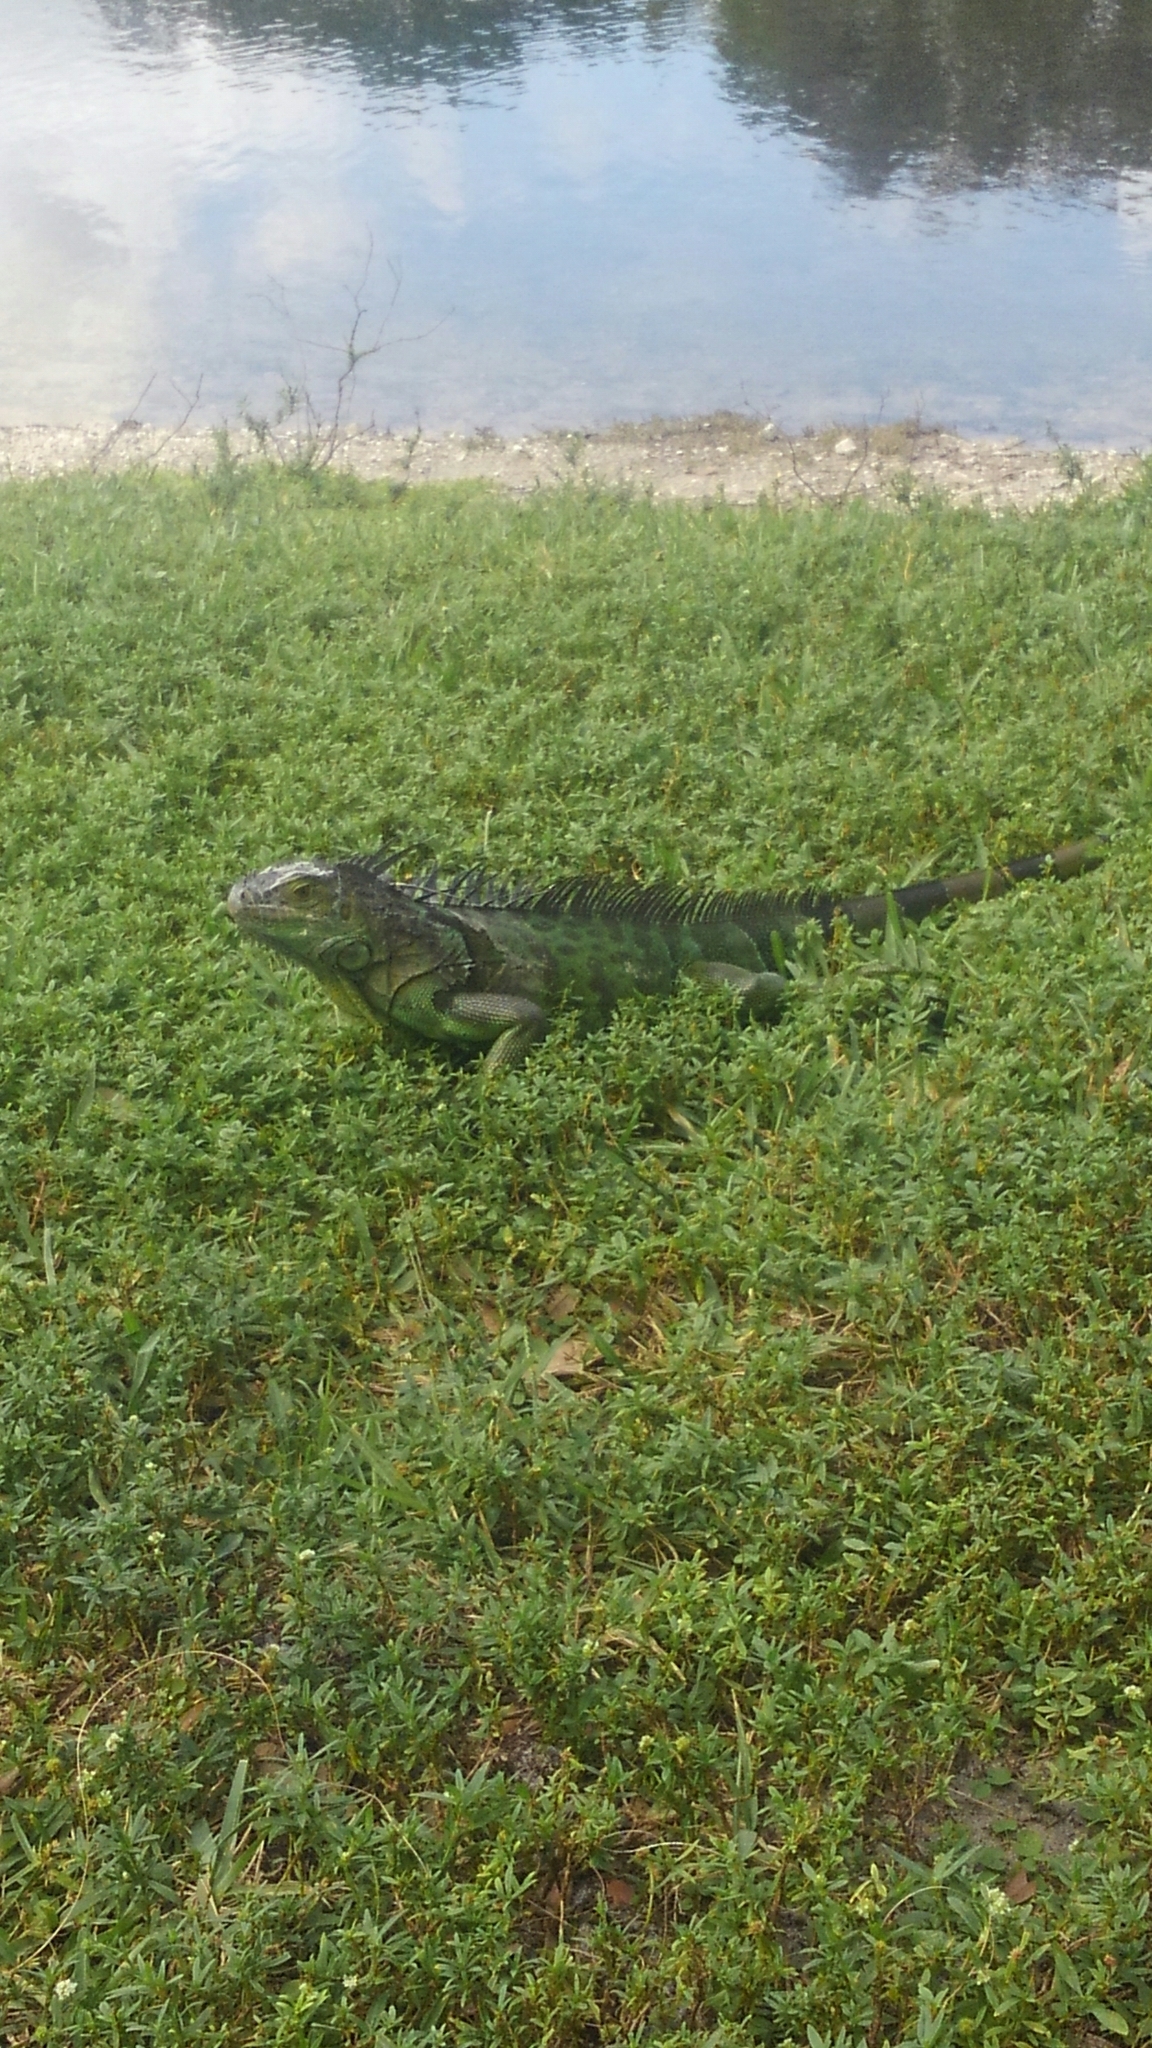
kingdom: Animalia
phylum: Chordata
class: Squamata
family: Iguanidae
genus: Iguana
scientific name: Iguana iguana
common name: Green iguana
